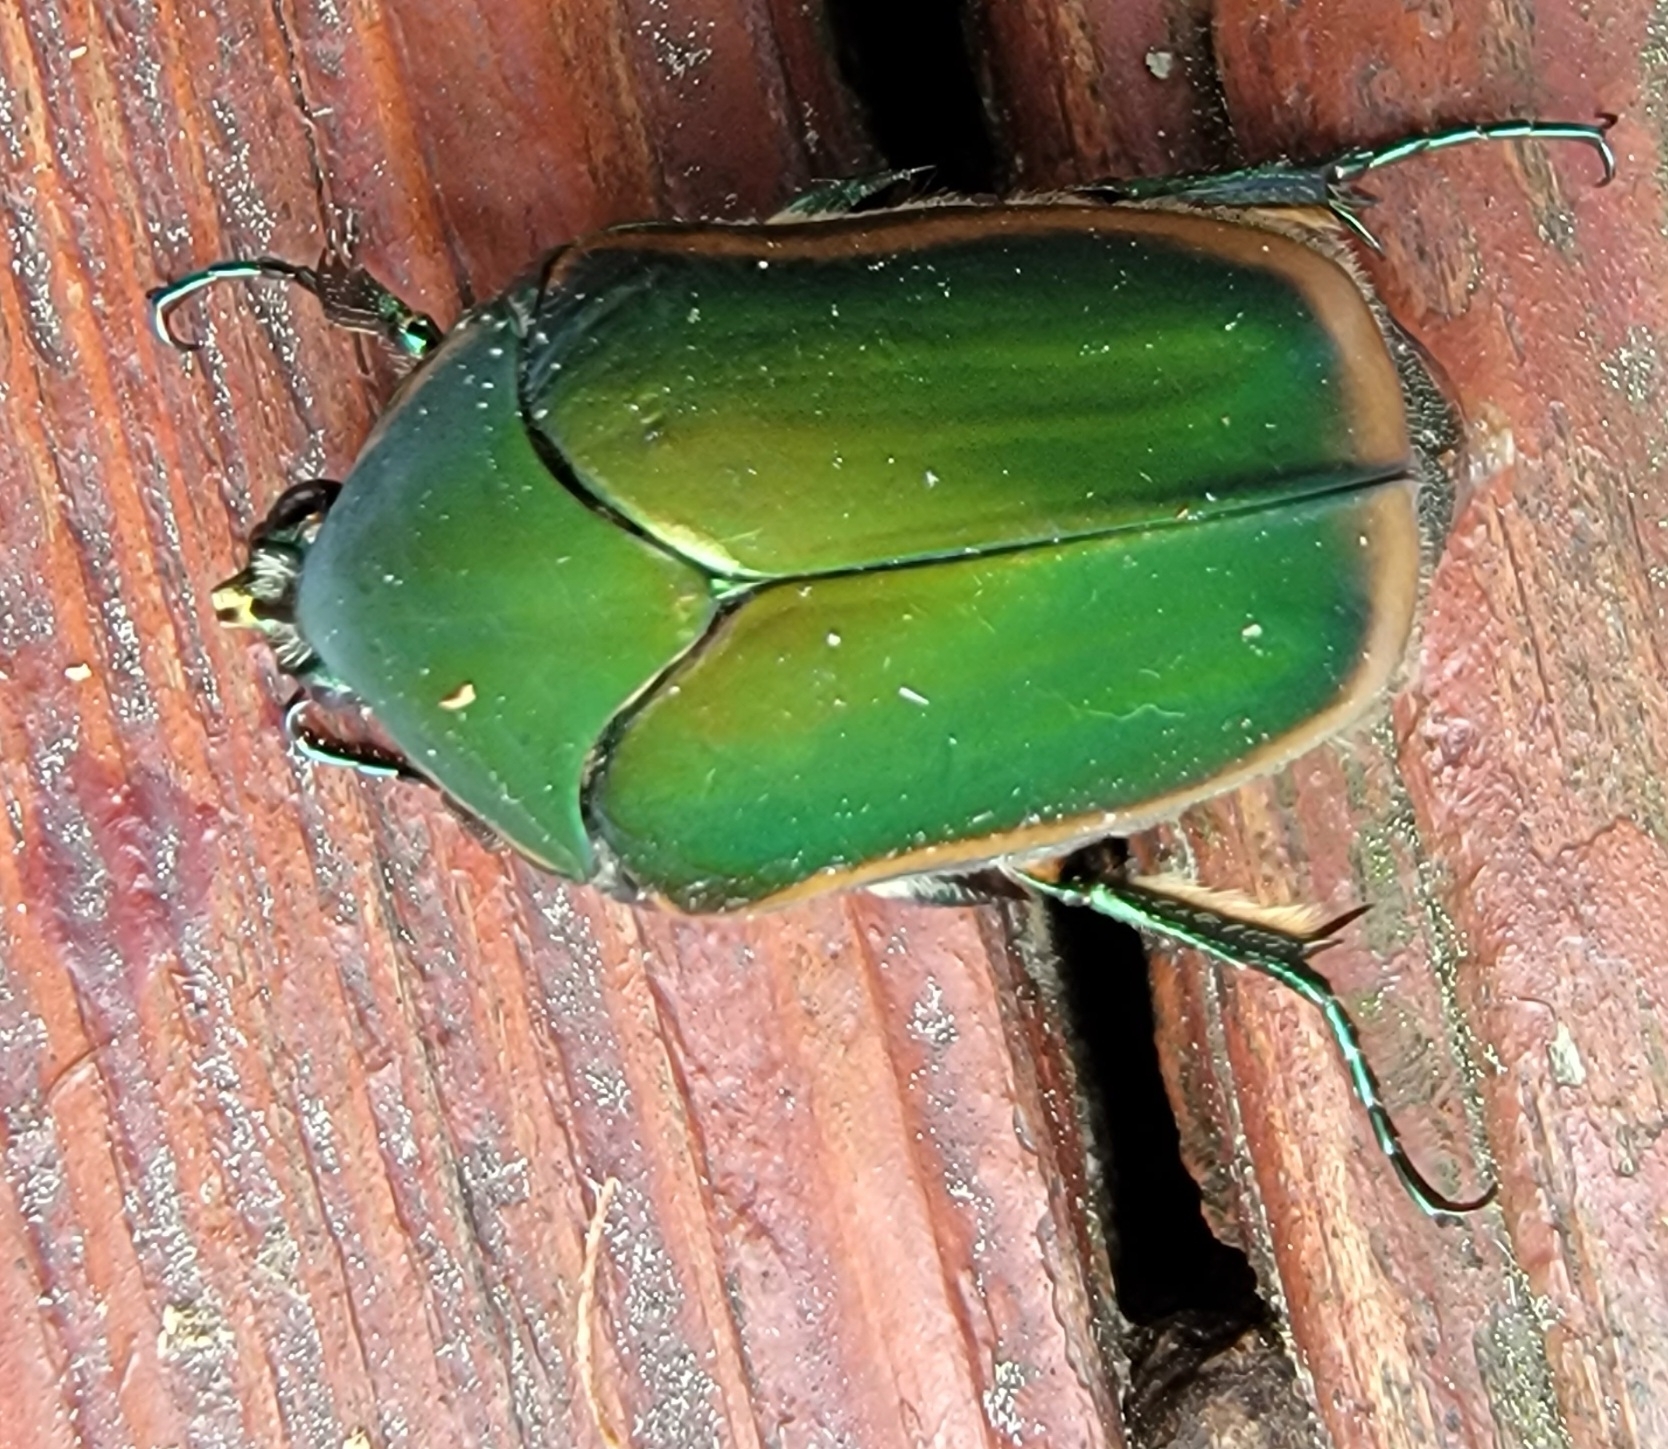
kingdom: Animalia
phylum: Arthropoda
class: Insecta
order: Coleoptera
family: Scarabaeidae
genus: Cotinis
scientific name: Cotinis nitida
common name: Common green june beetle
